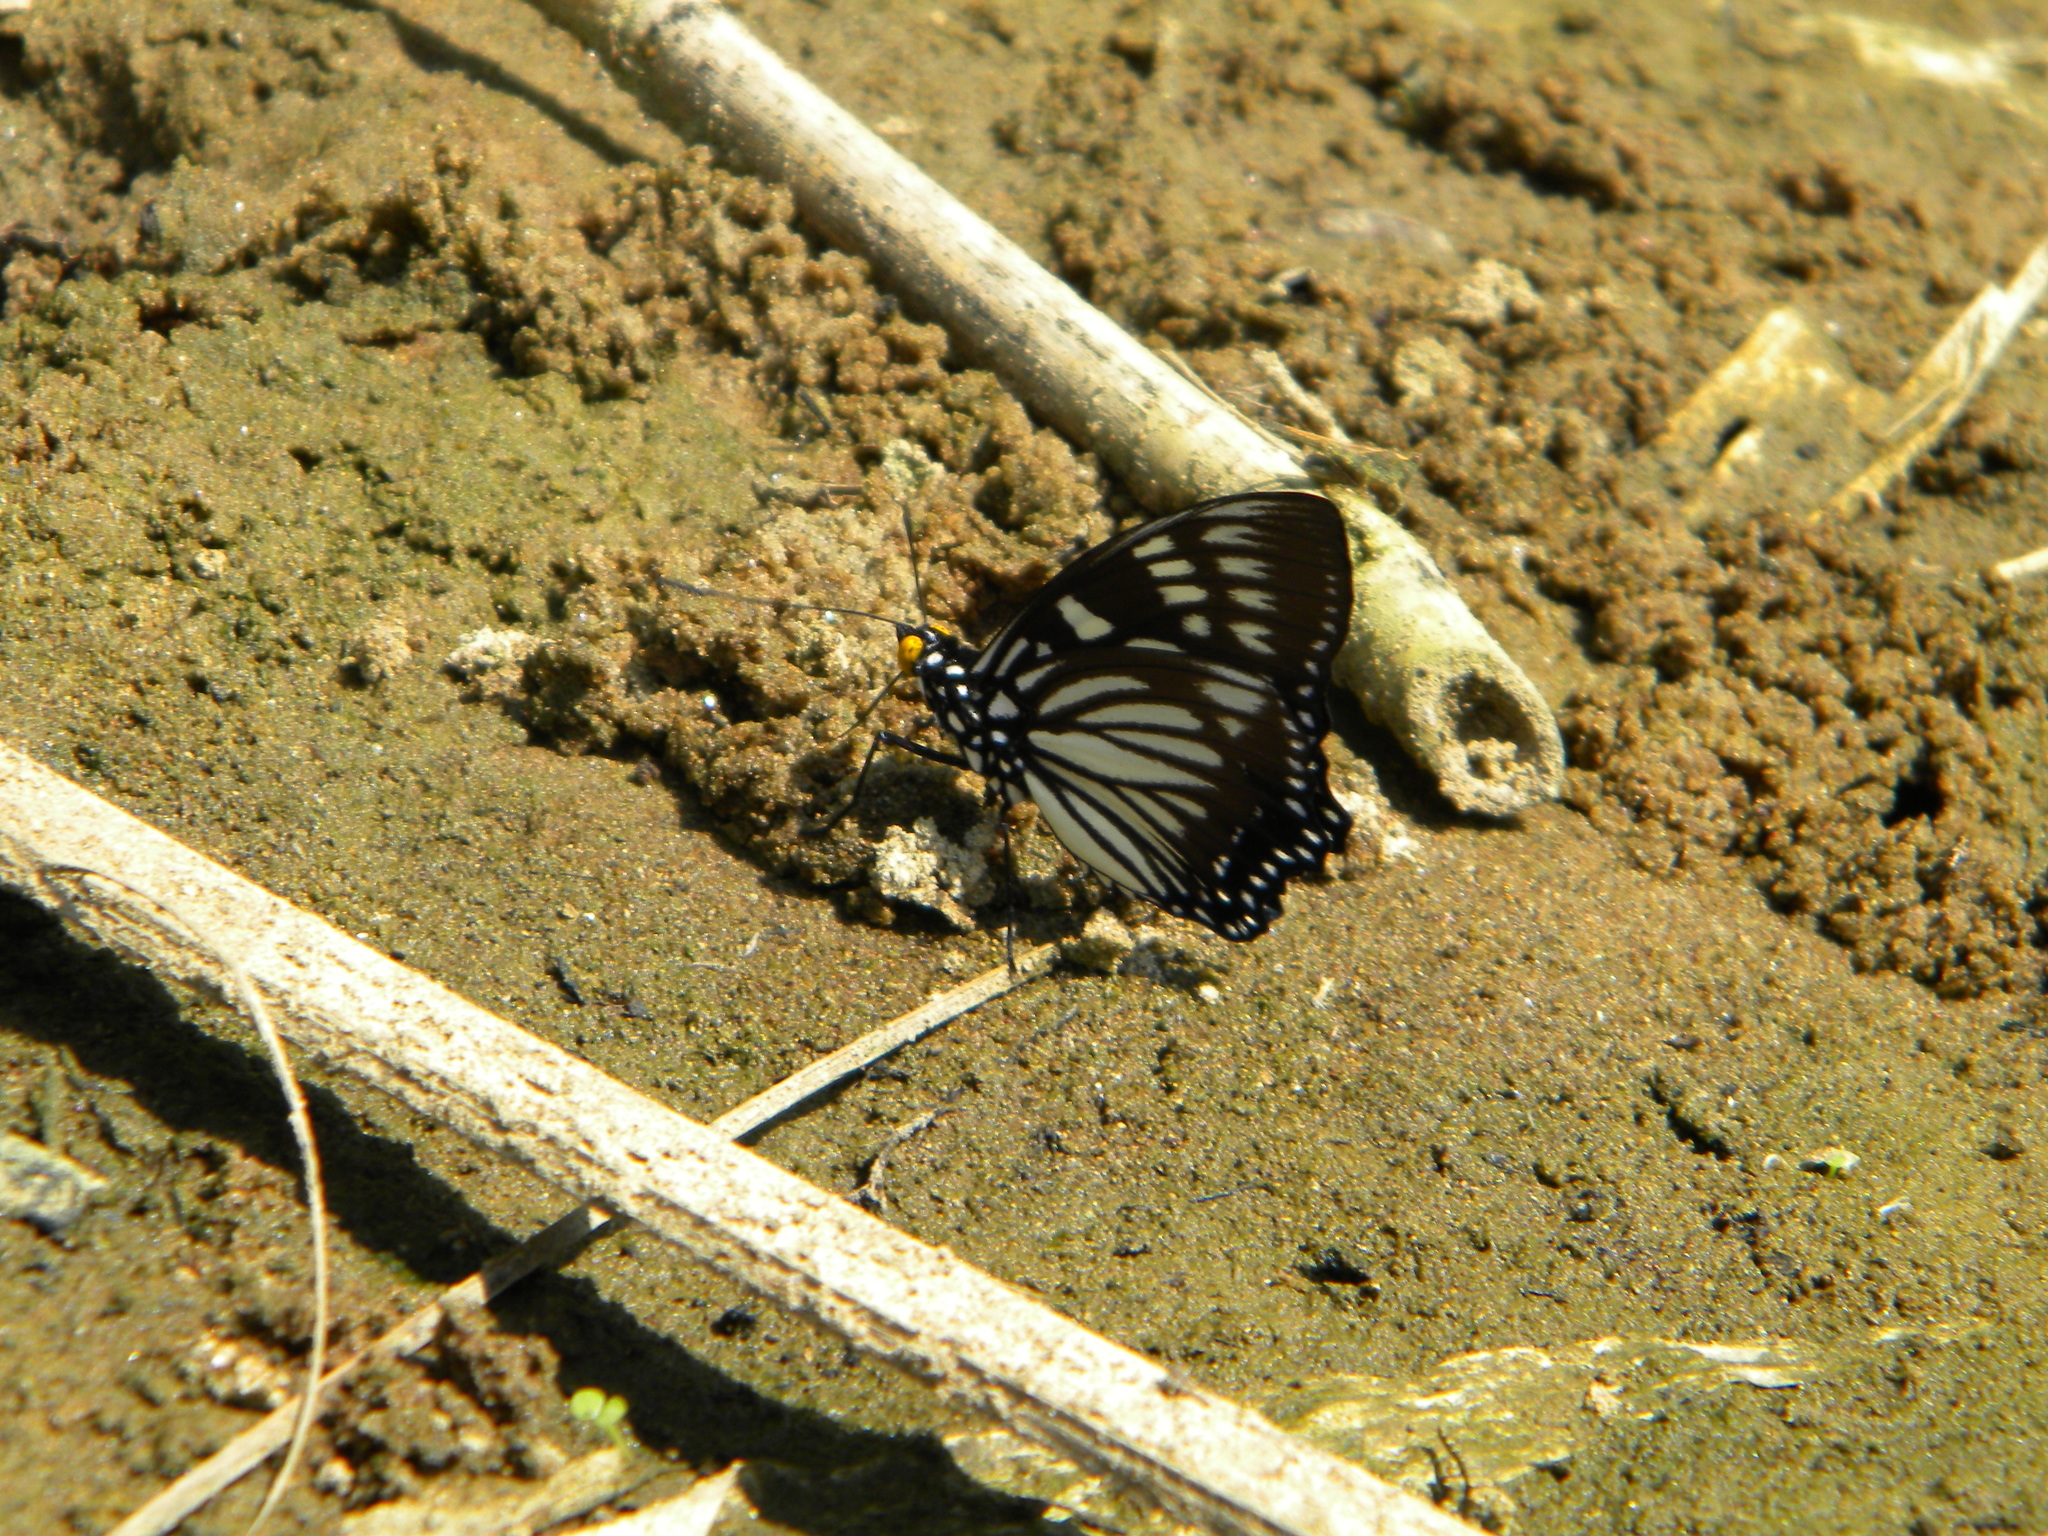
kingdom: Animalia
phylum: Arthropoda
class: Insecta
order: Lepidoptera
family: Nymphalidae
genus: Euripus
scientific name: Euripus nyctelius
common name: Courtesan
